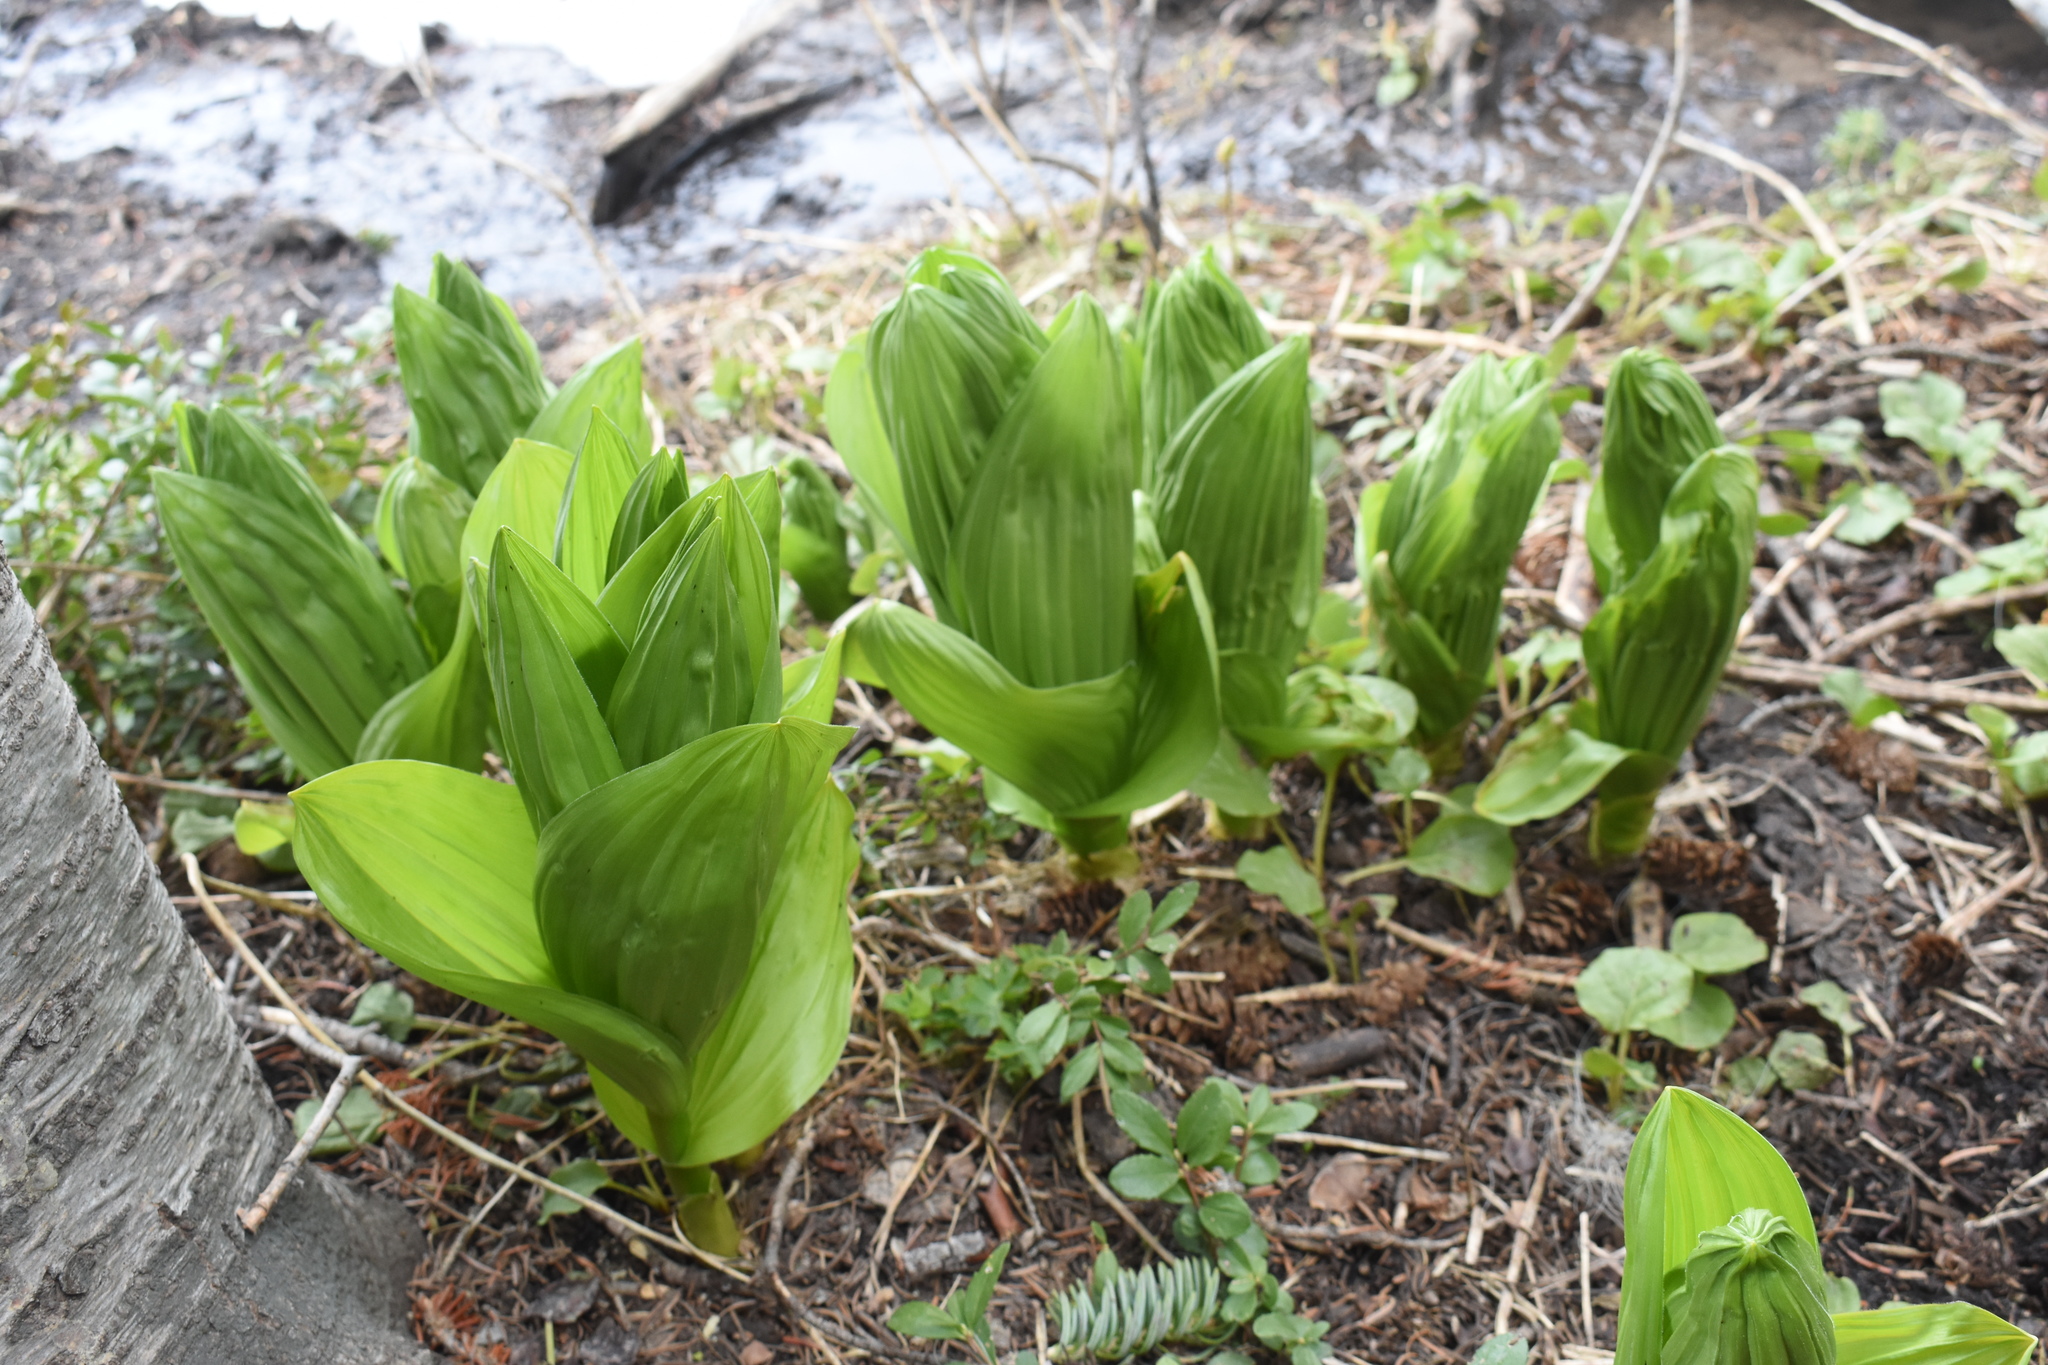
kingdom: Plantae
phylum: Tracheophyta
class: Liliopsida
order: Liliales
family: Melanthiaceae
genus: Veratrum
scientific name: Veratrum californicum
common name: California veratrum
